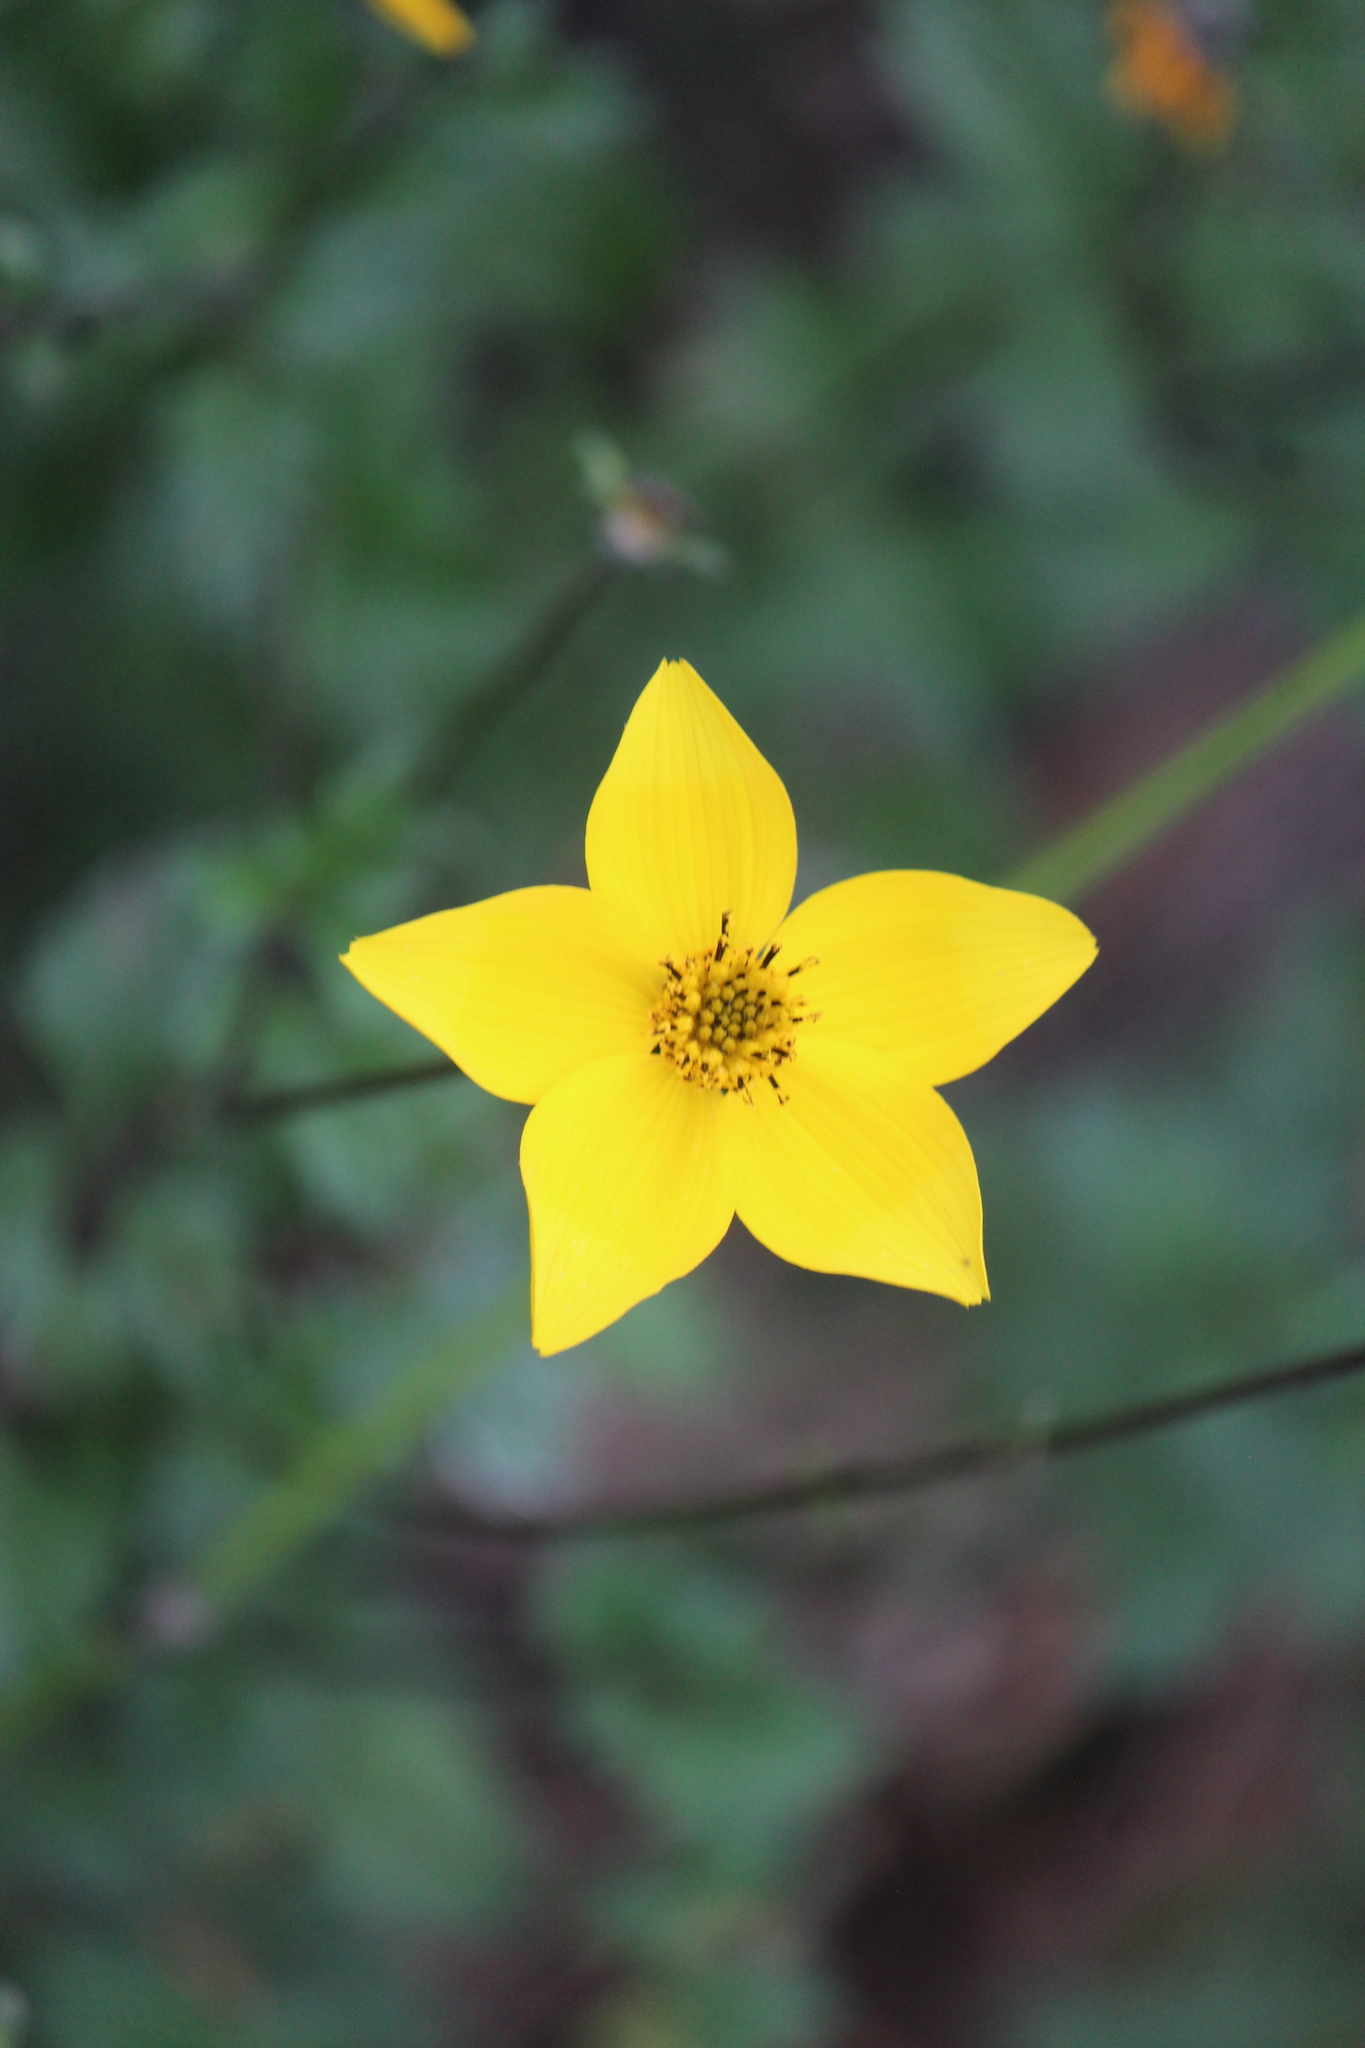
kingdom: Plantae
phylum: Tracheophyta
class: Magnoliopsida
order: Asterales
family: Asteraceae
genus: Bidens
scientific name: Bidens triplinervia
